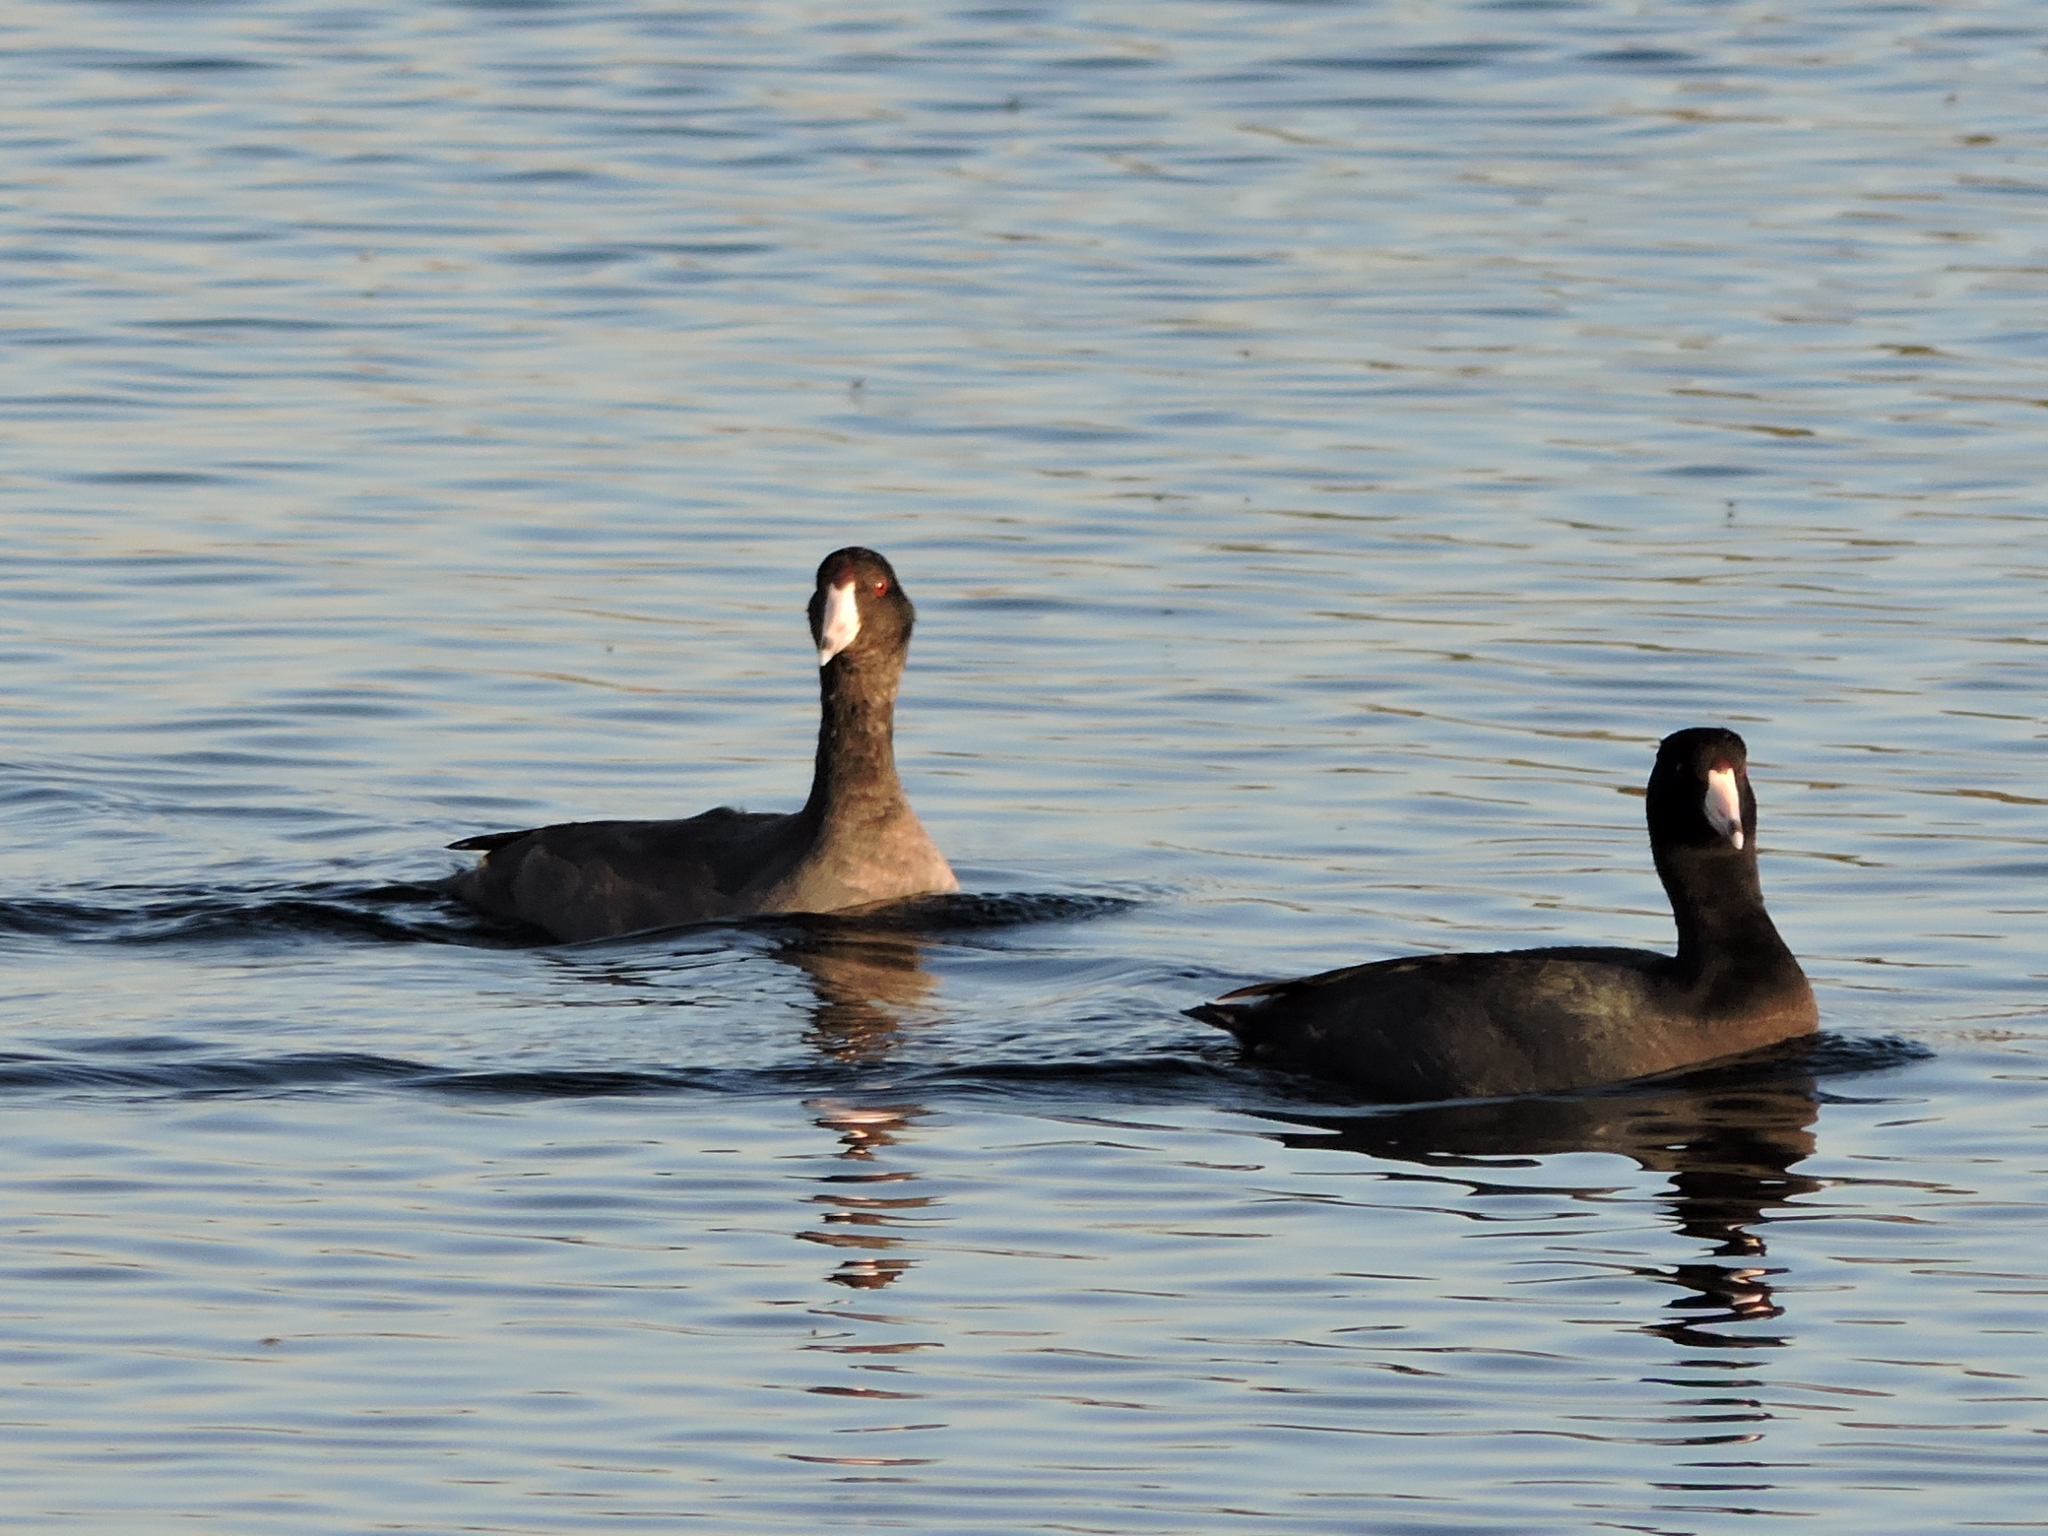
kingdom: Animalia
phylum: Chordata
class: Aves
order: Gruiformes
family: Rallidae
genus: Fulica
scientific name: Fulica americana
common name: American coot
